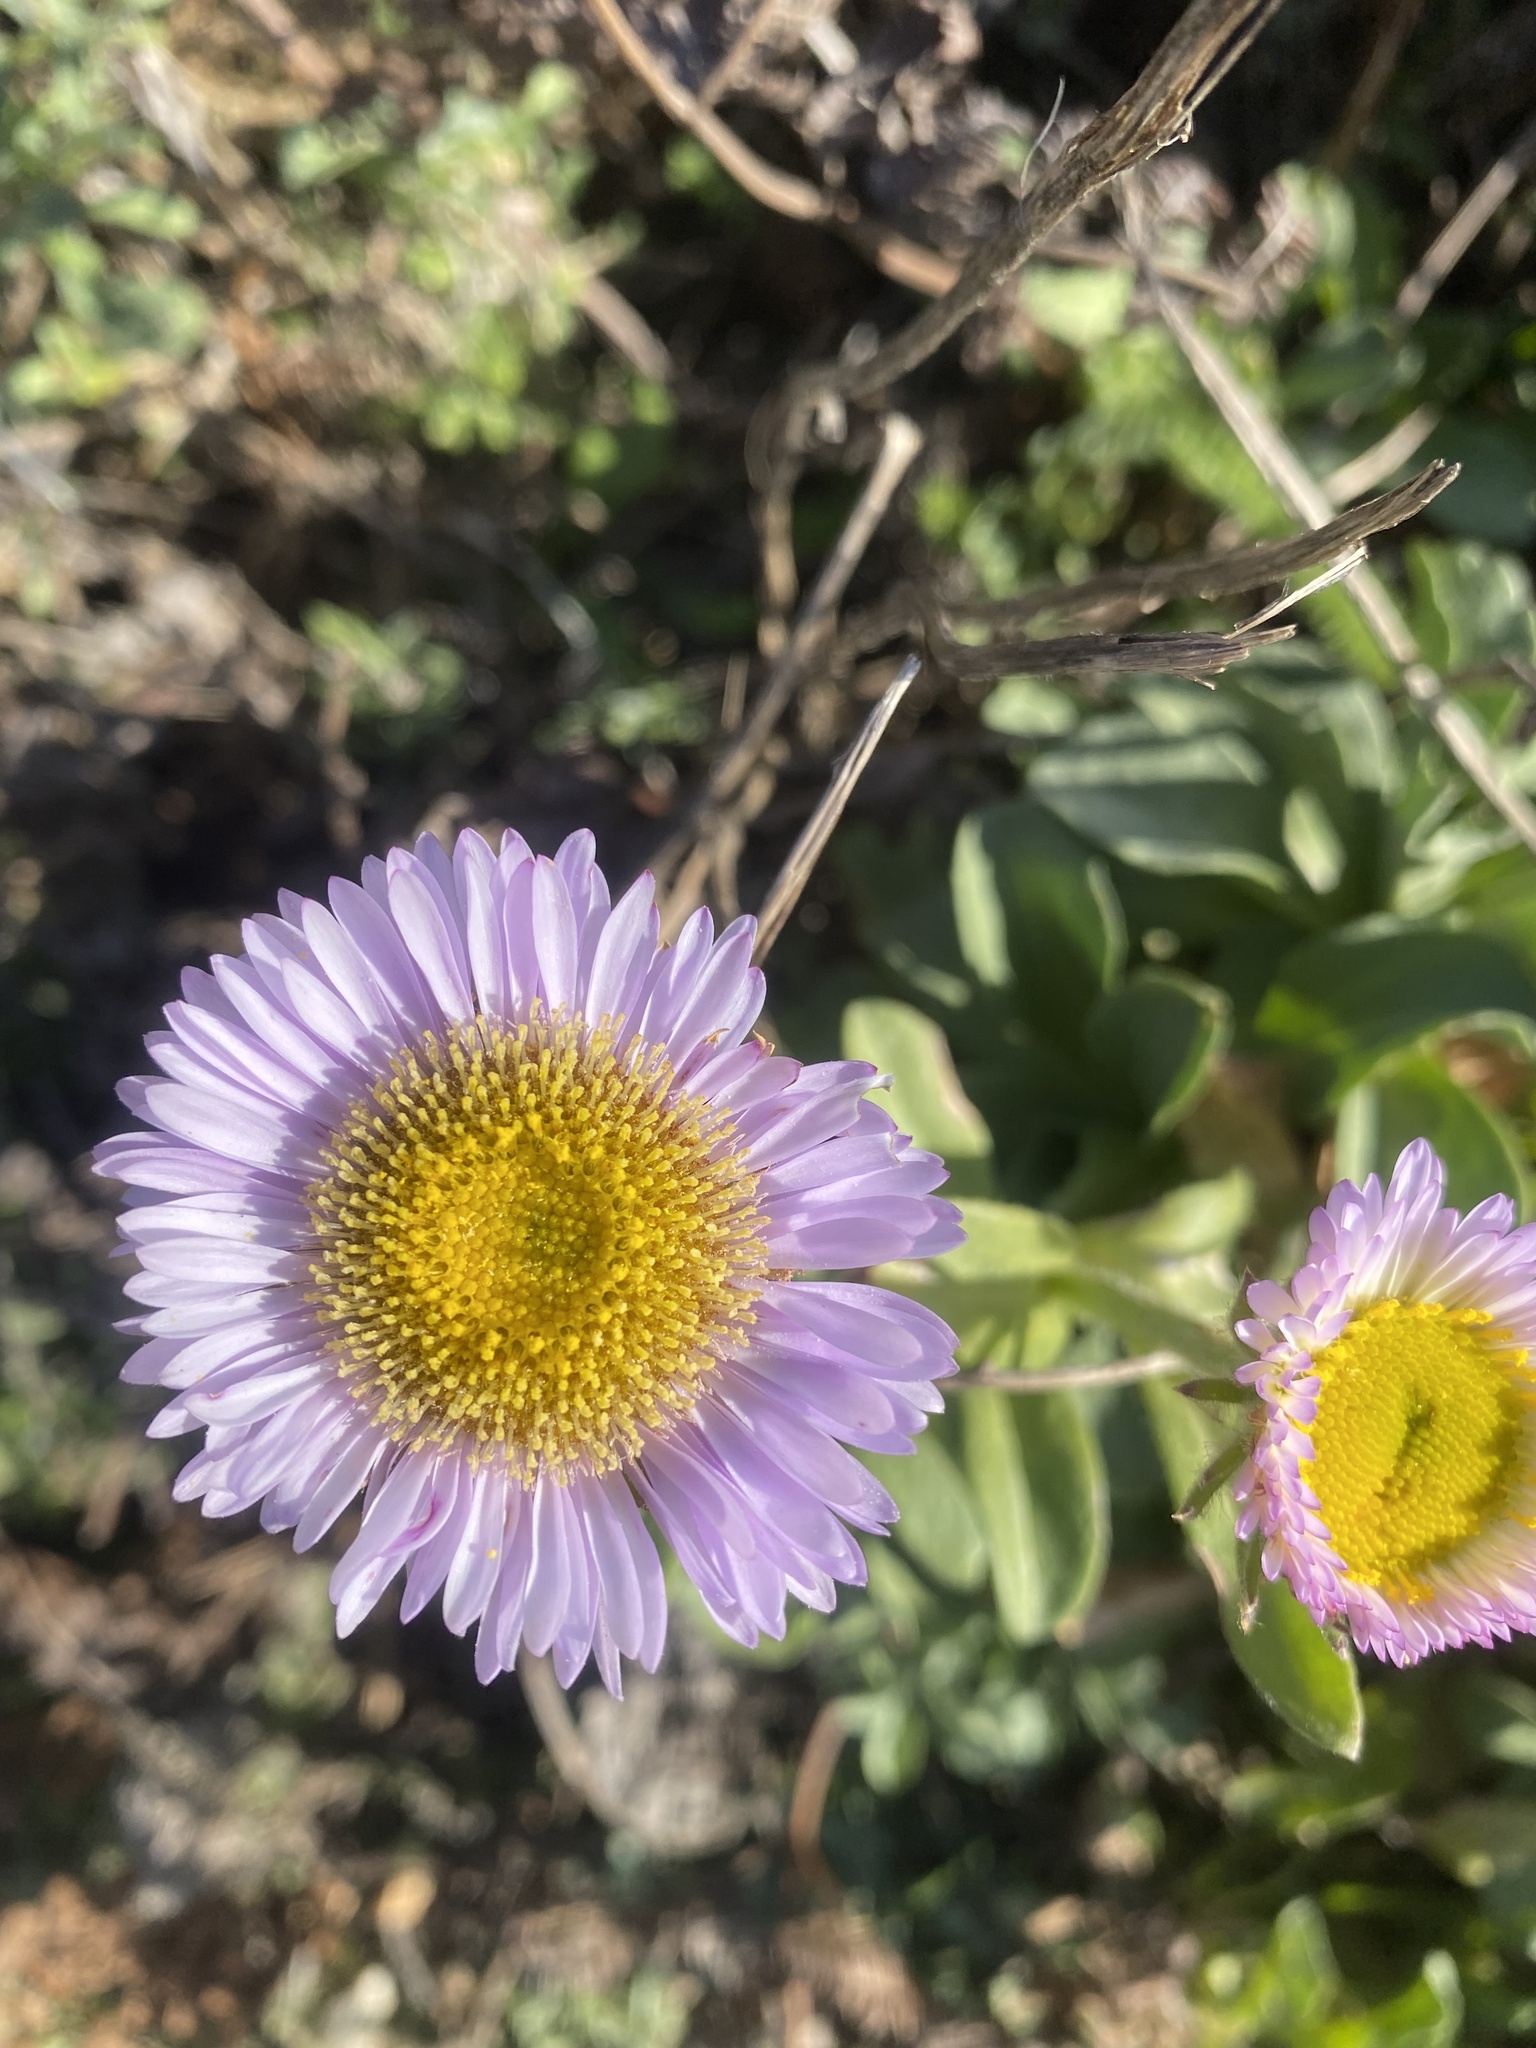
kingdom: Plantae
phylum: Tracheophyta
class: Magnoliopsida
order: Asterales
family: Asteraceae
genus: Erigeron
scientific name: Erigeron glaucus
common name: Seaside daisy
